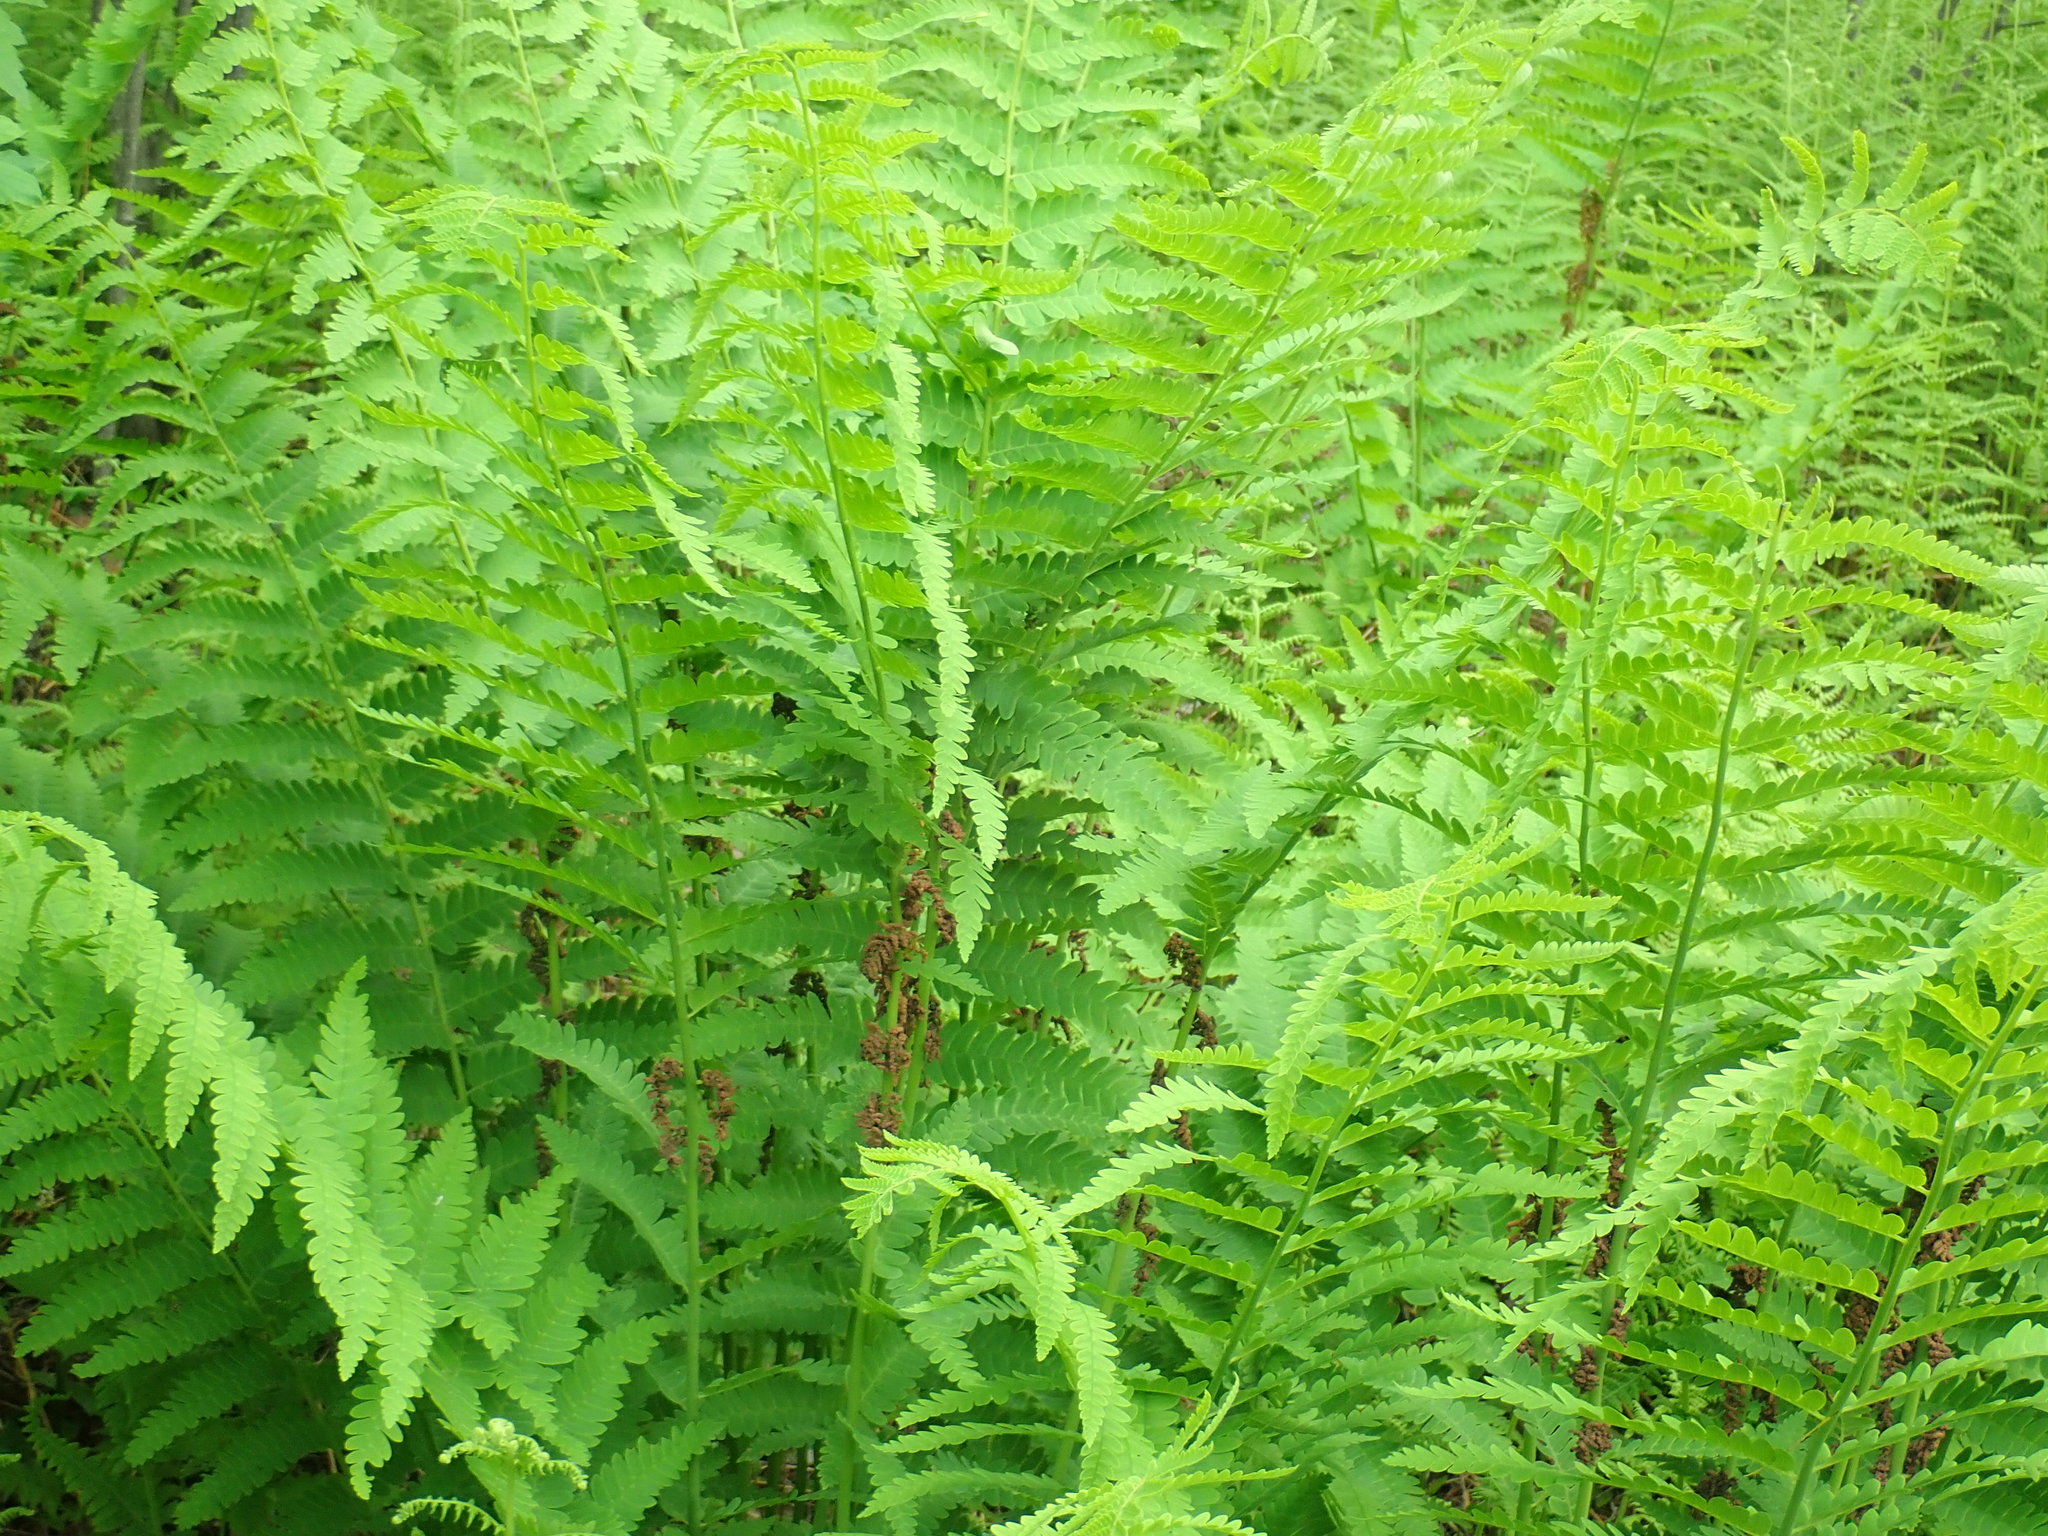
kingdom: Plantae
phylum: Tracheophyta
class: Polypodiopsida
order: Osmundales
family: Osmundaceae
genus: Claytosmunda
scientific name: Claytosmunda claytoniana
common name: Clayton's fern
